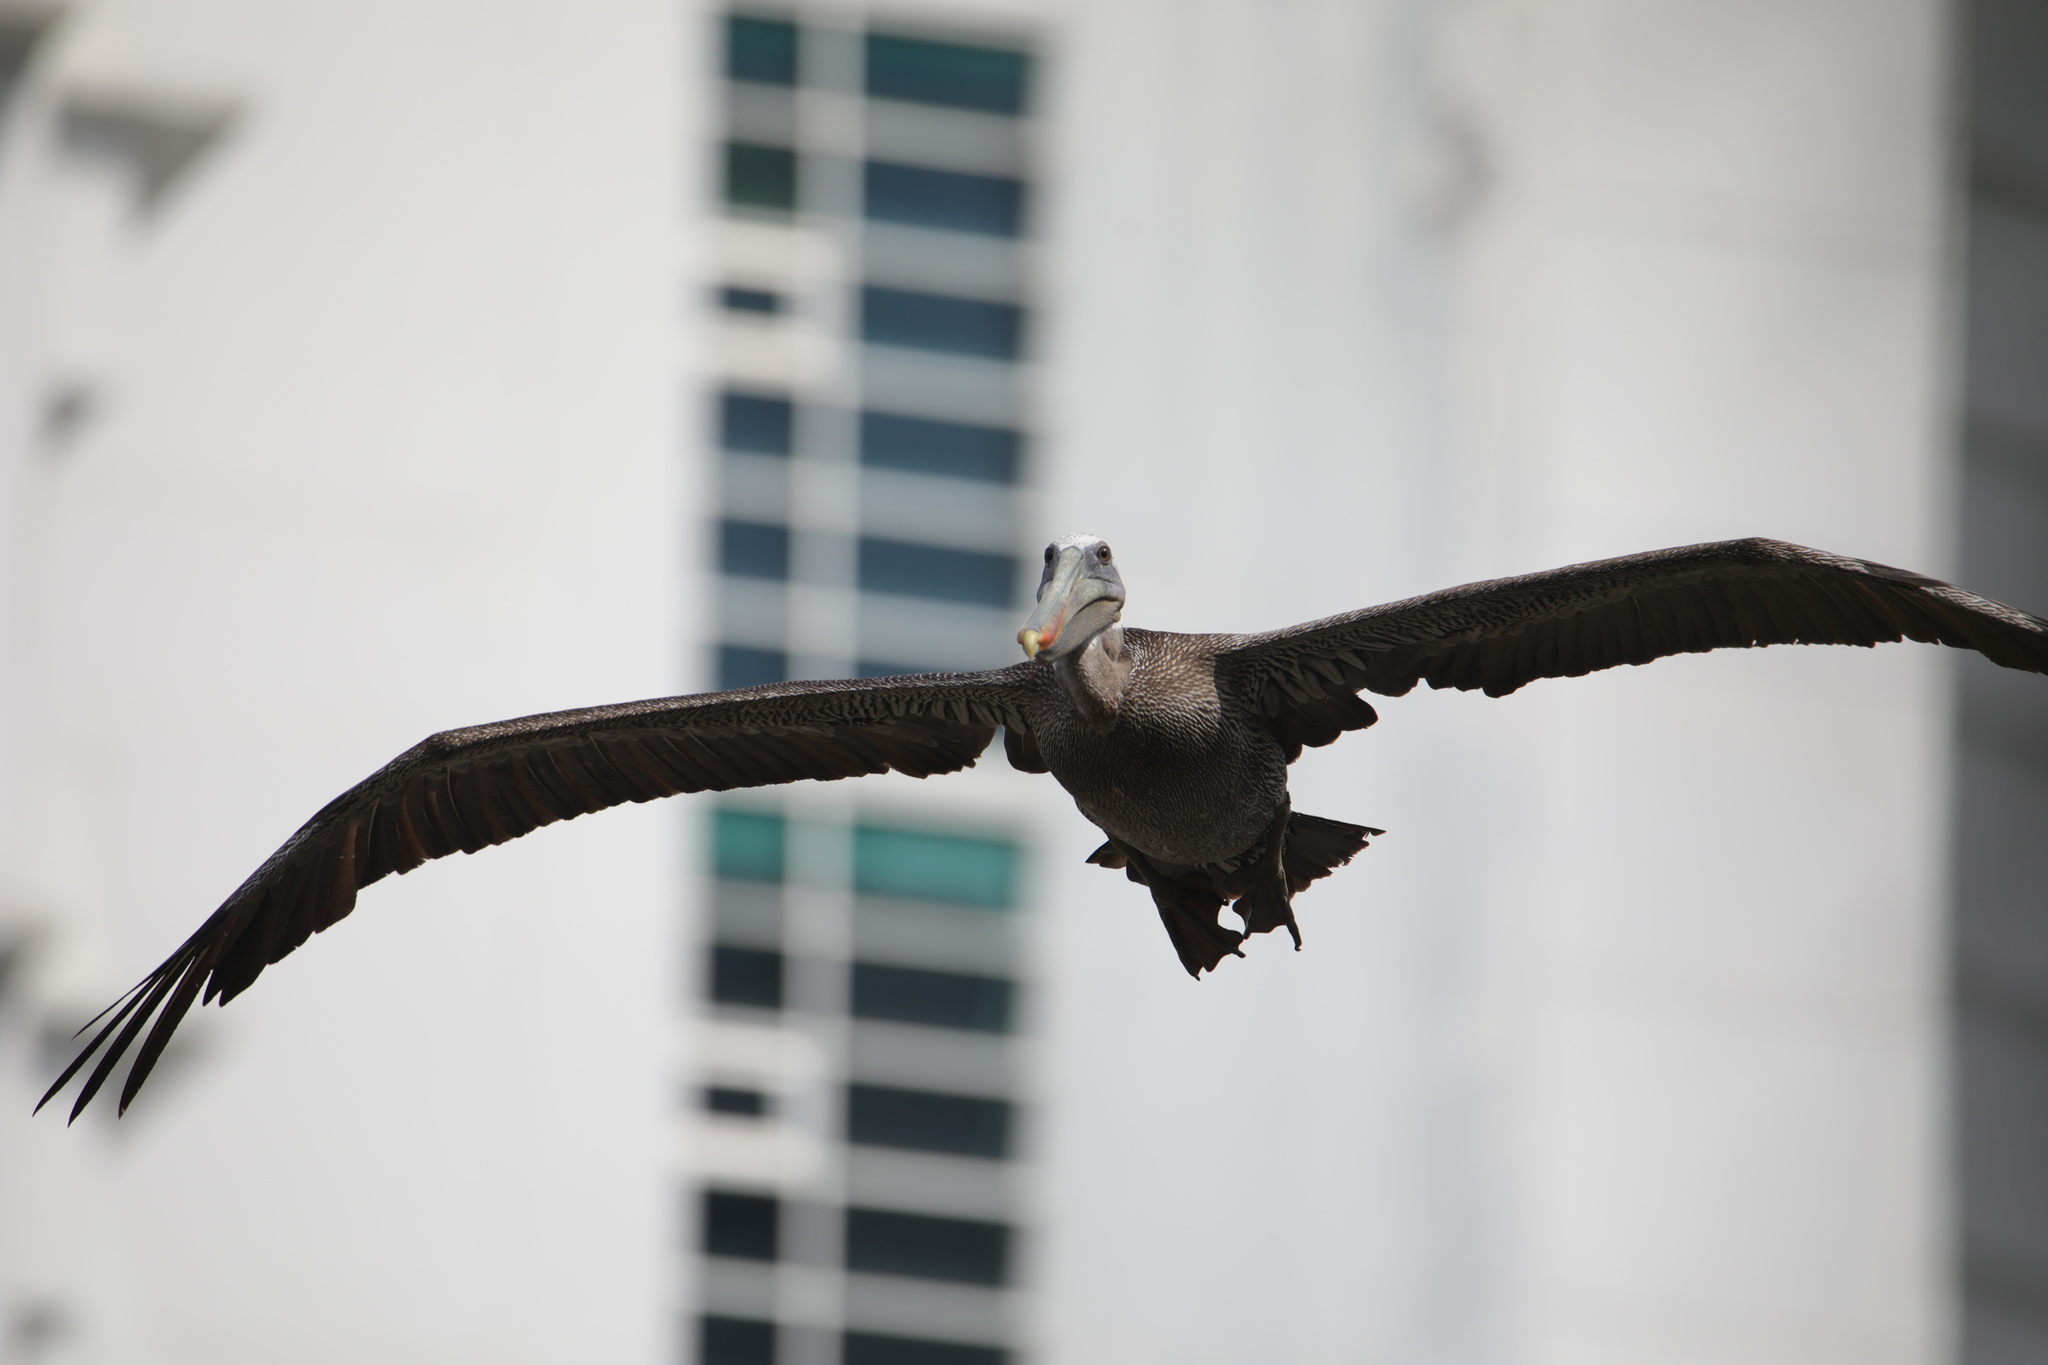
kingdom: Animalia
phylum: Chordata
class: Aves
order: Pelecaniformes
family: Pelecanidae
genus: Pelecanus
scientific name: Pelecanus occidentalis
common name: Brown pelican
